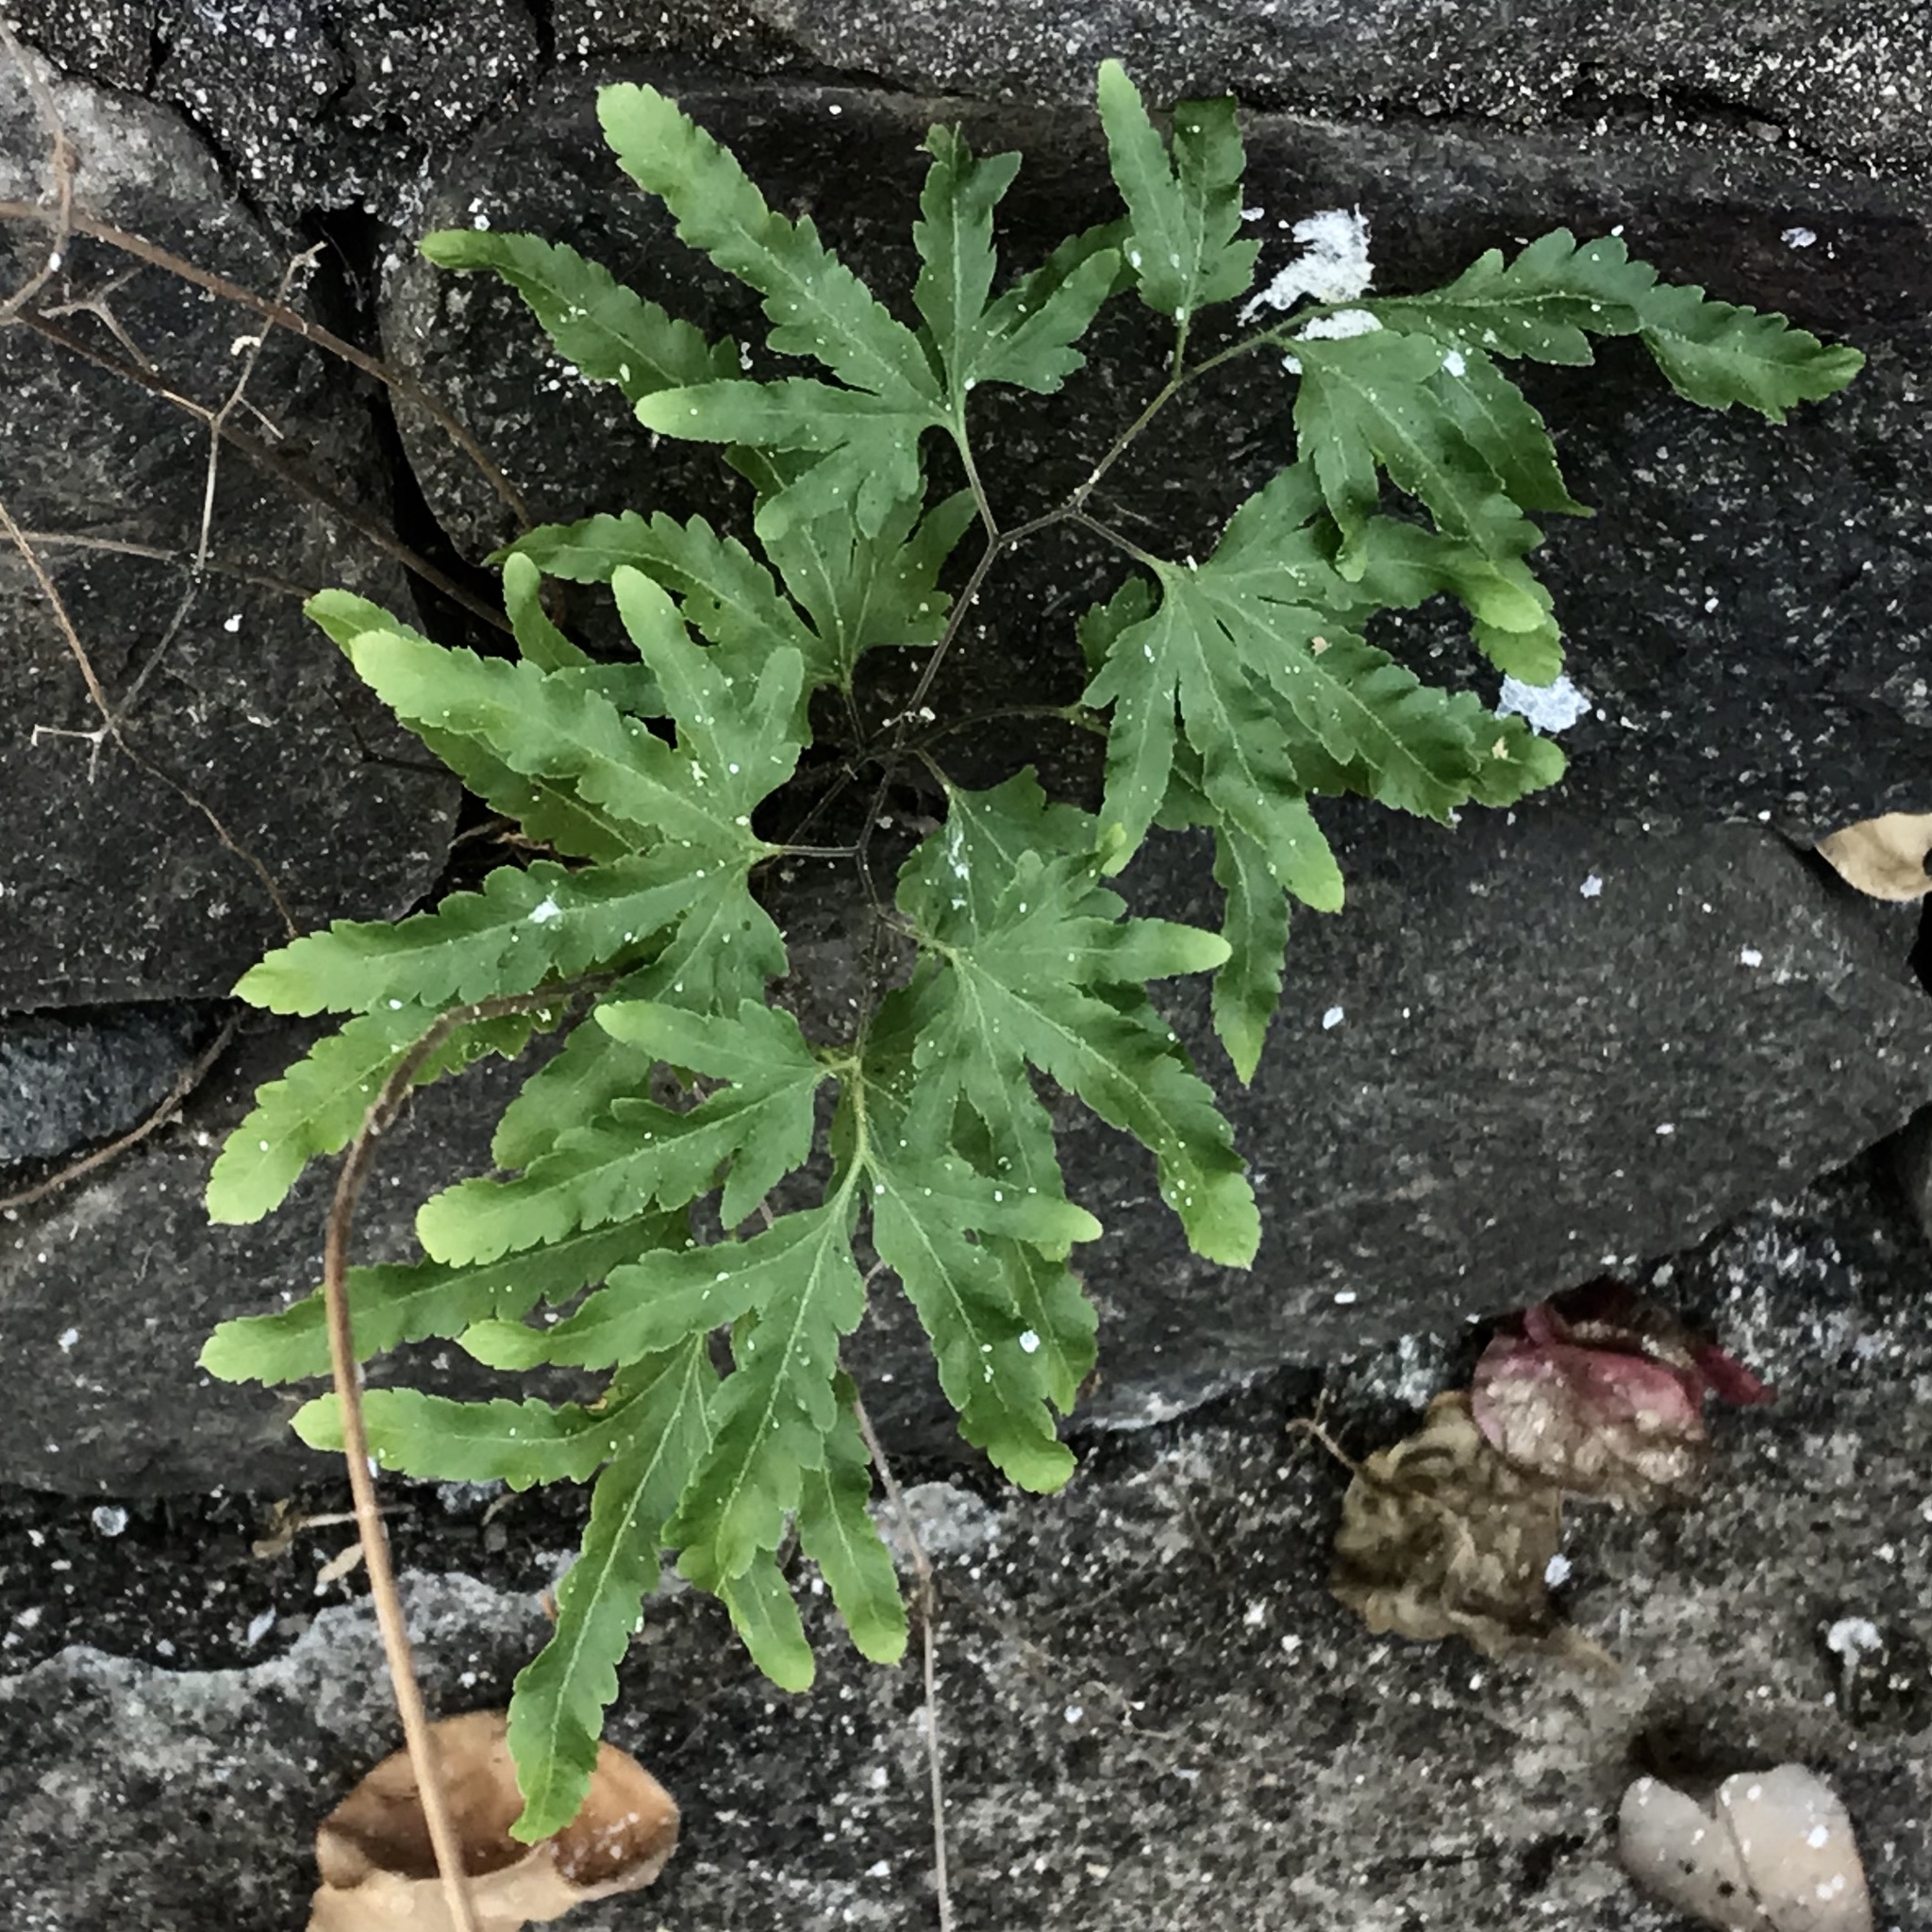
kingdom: Plantae
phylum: Tracheophyta
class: Polypodiopsida
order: Schizaeales
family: Lygodiaceae
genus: Lygodium
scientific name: Lygodium venustum
